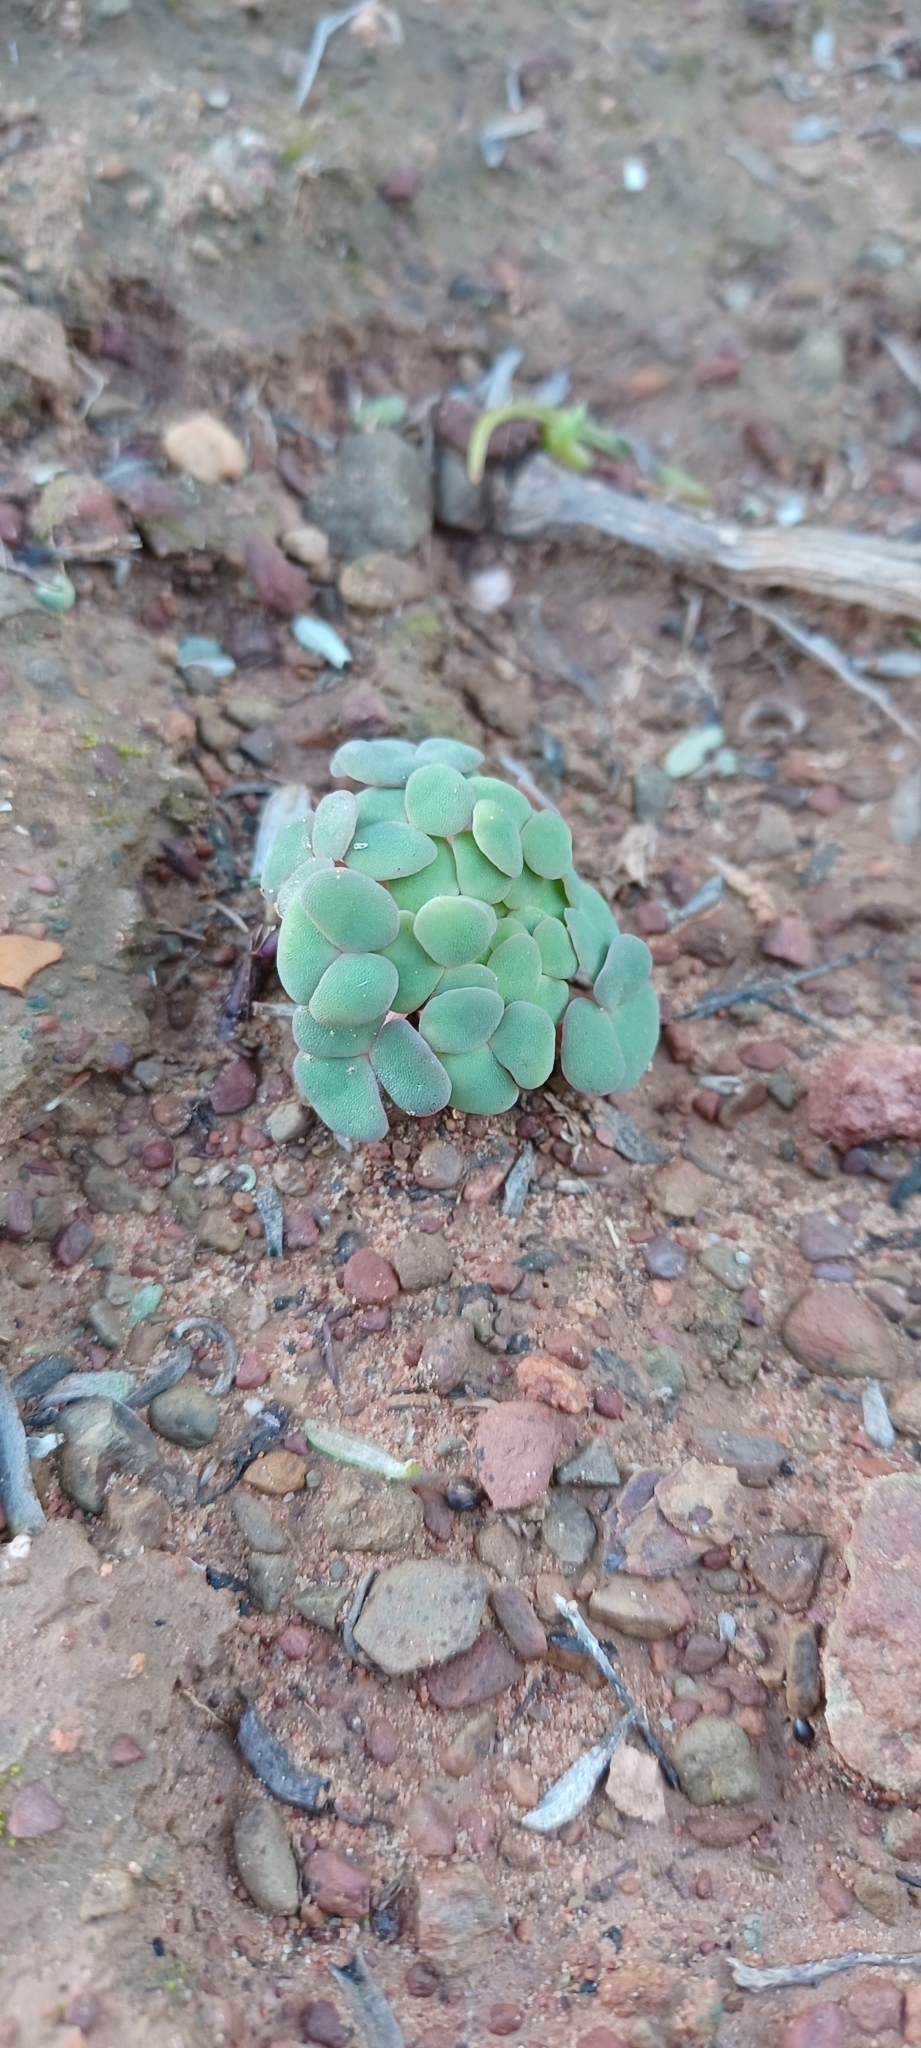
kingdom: Plantae
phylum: Tracheophyta
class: Magnoliopsida
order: Oxalidales
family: Oxalidaceae
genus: Oxalis
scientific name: Oxalis convexula
